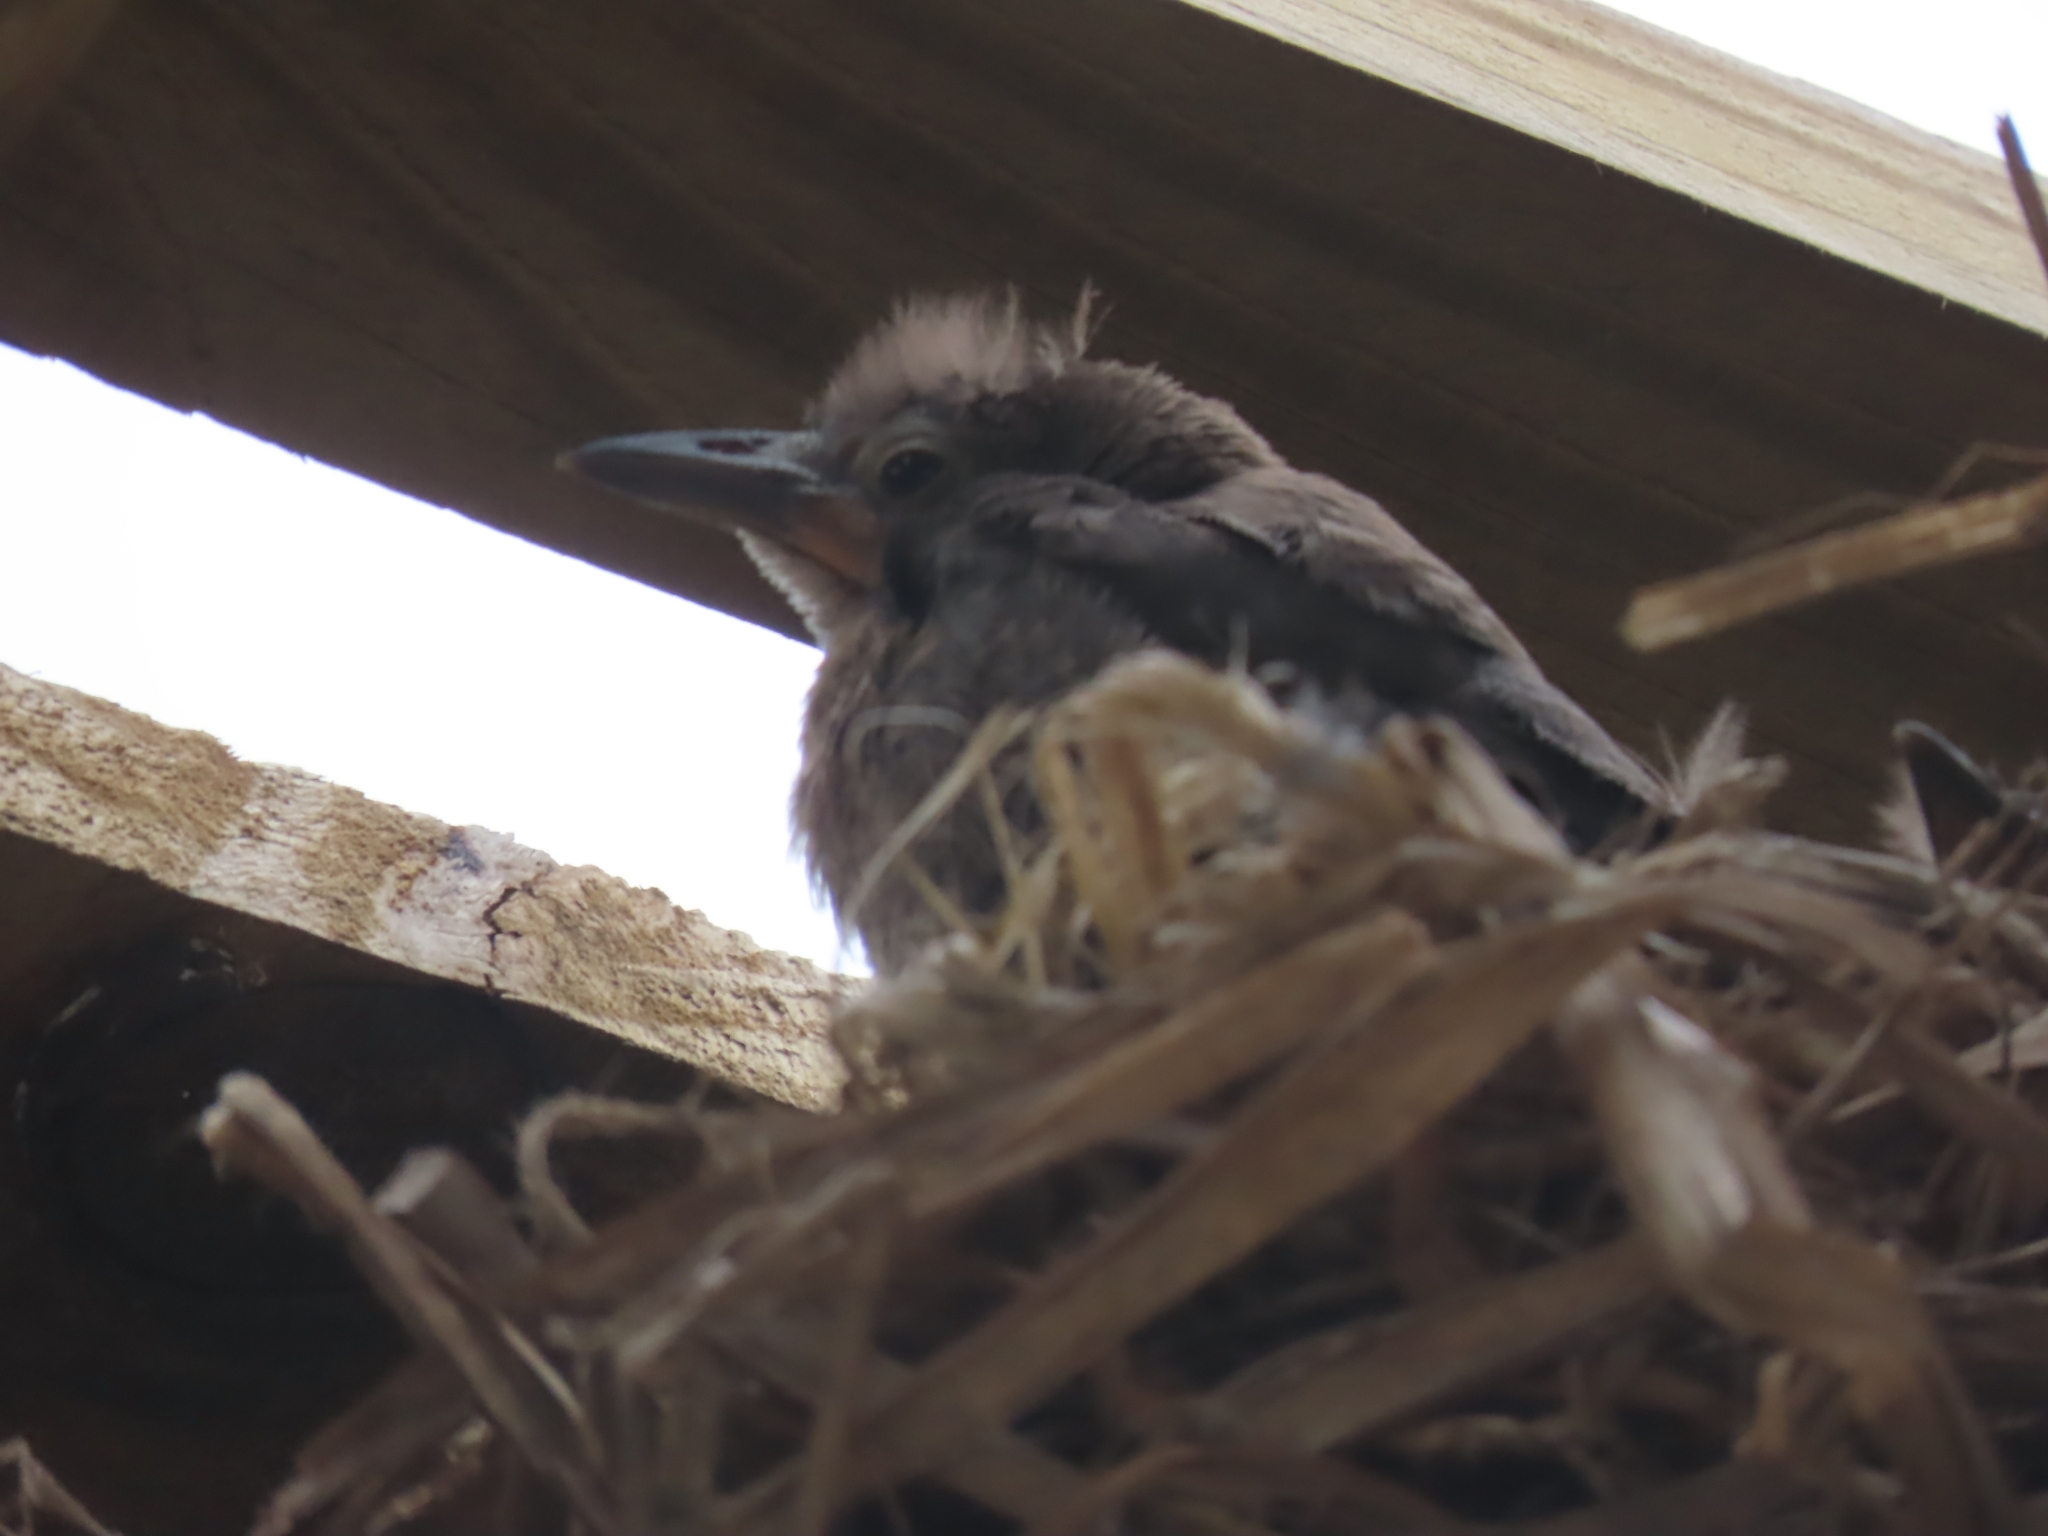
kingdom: Animalia
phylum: Chordata
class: Aves
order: Passeriformes
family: Icteridae
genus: Quiscalus
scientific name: Quiscalus mexicanus
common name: Great-tailed grackle
